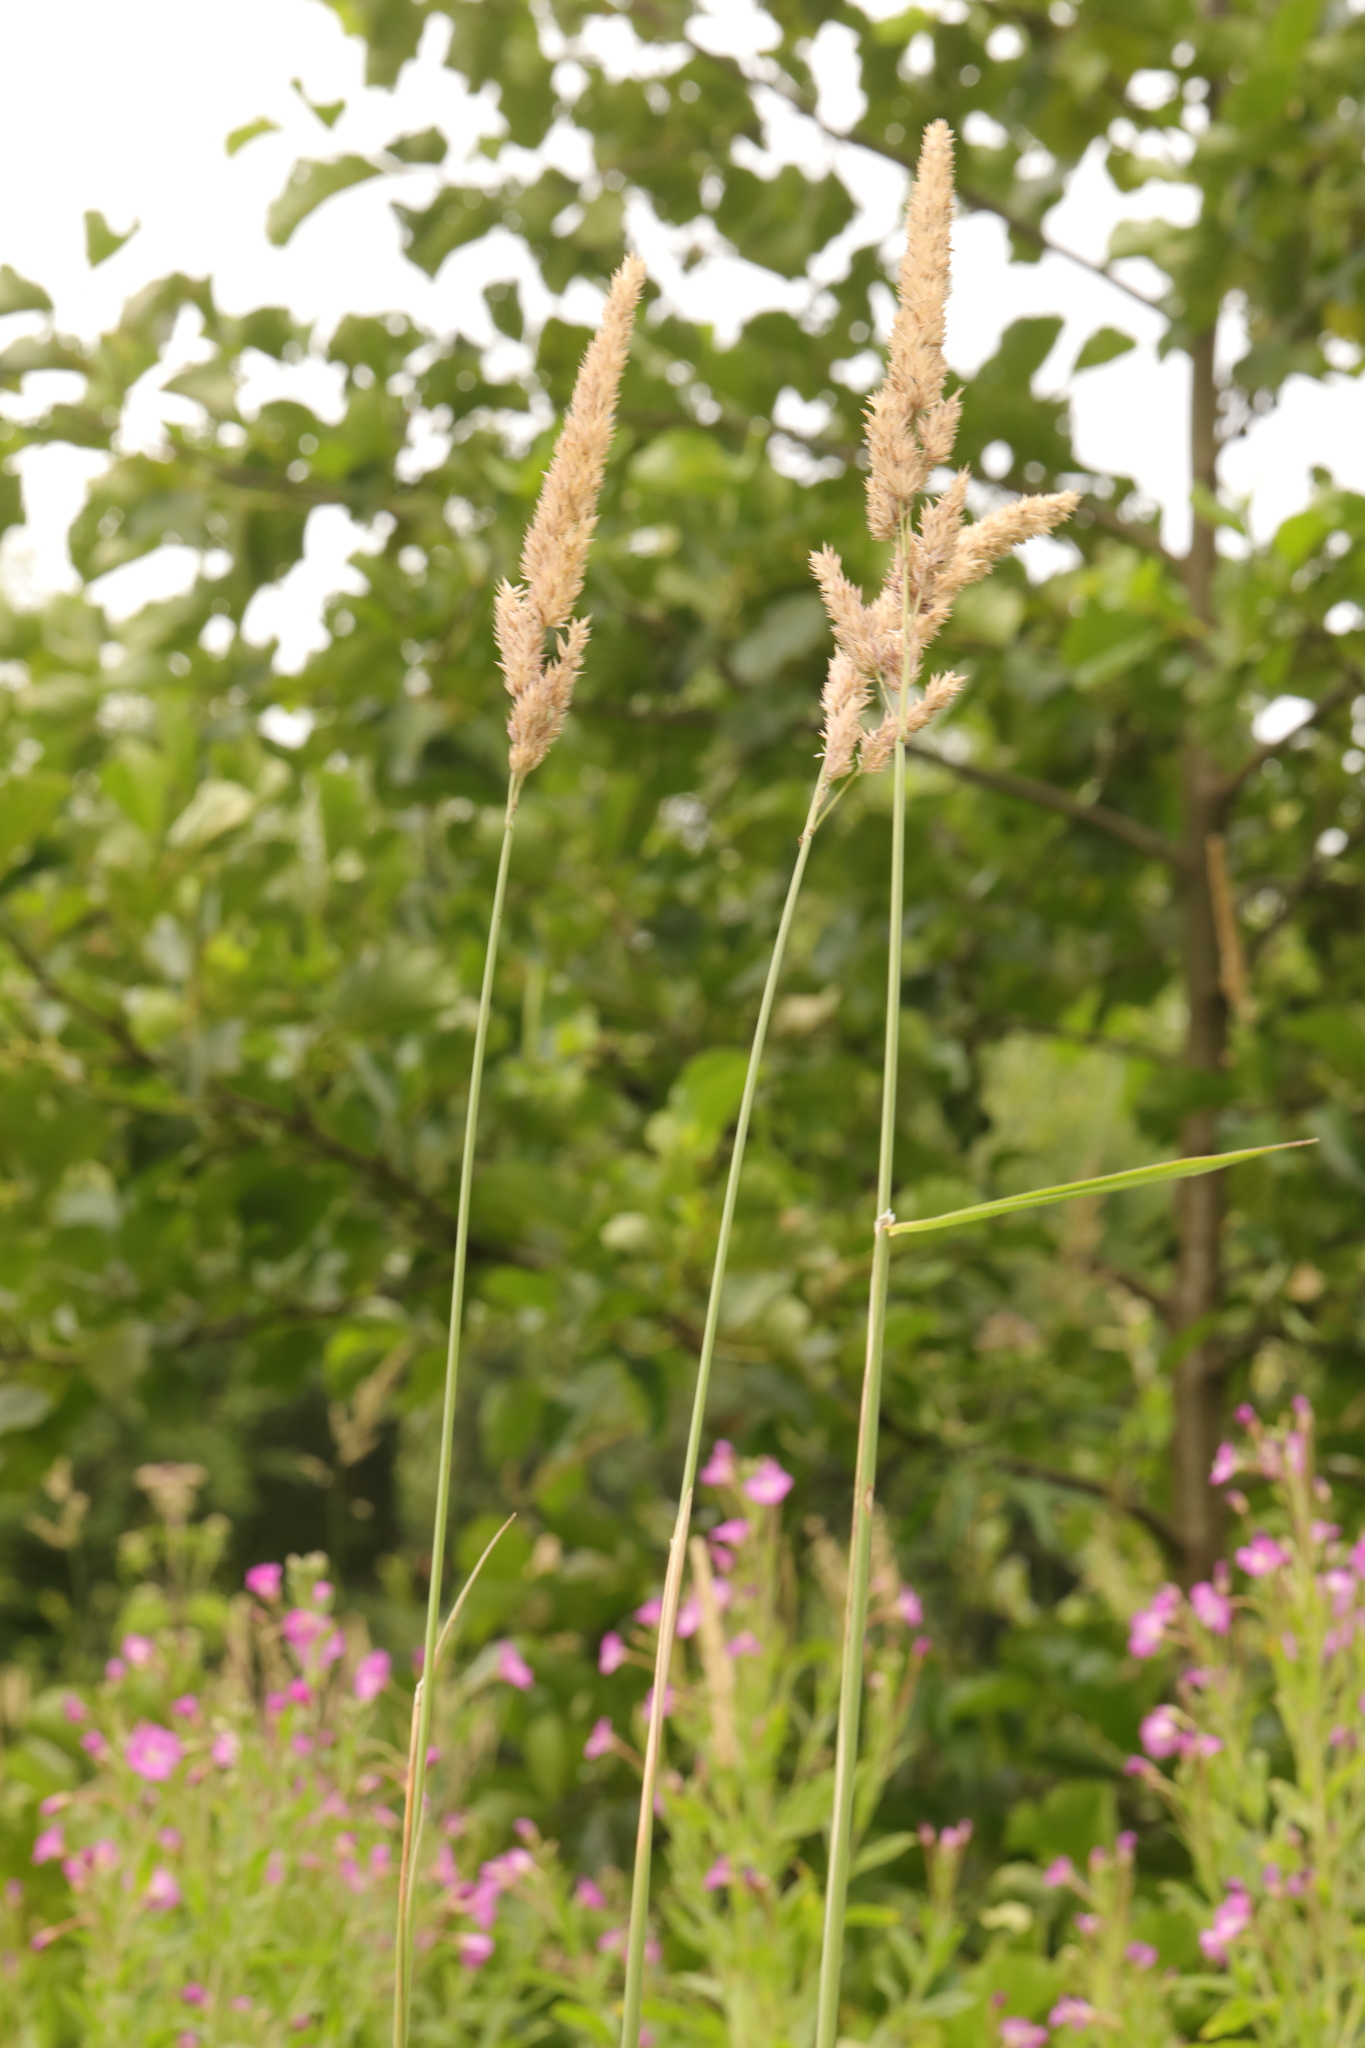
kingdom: Plantae
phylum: Tracheophyta
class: Liliopsida
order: Poales
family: Poaceae
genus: Phalaris
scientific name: Phalaris arundinacea
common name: Reed canary-grass
